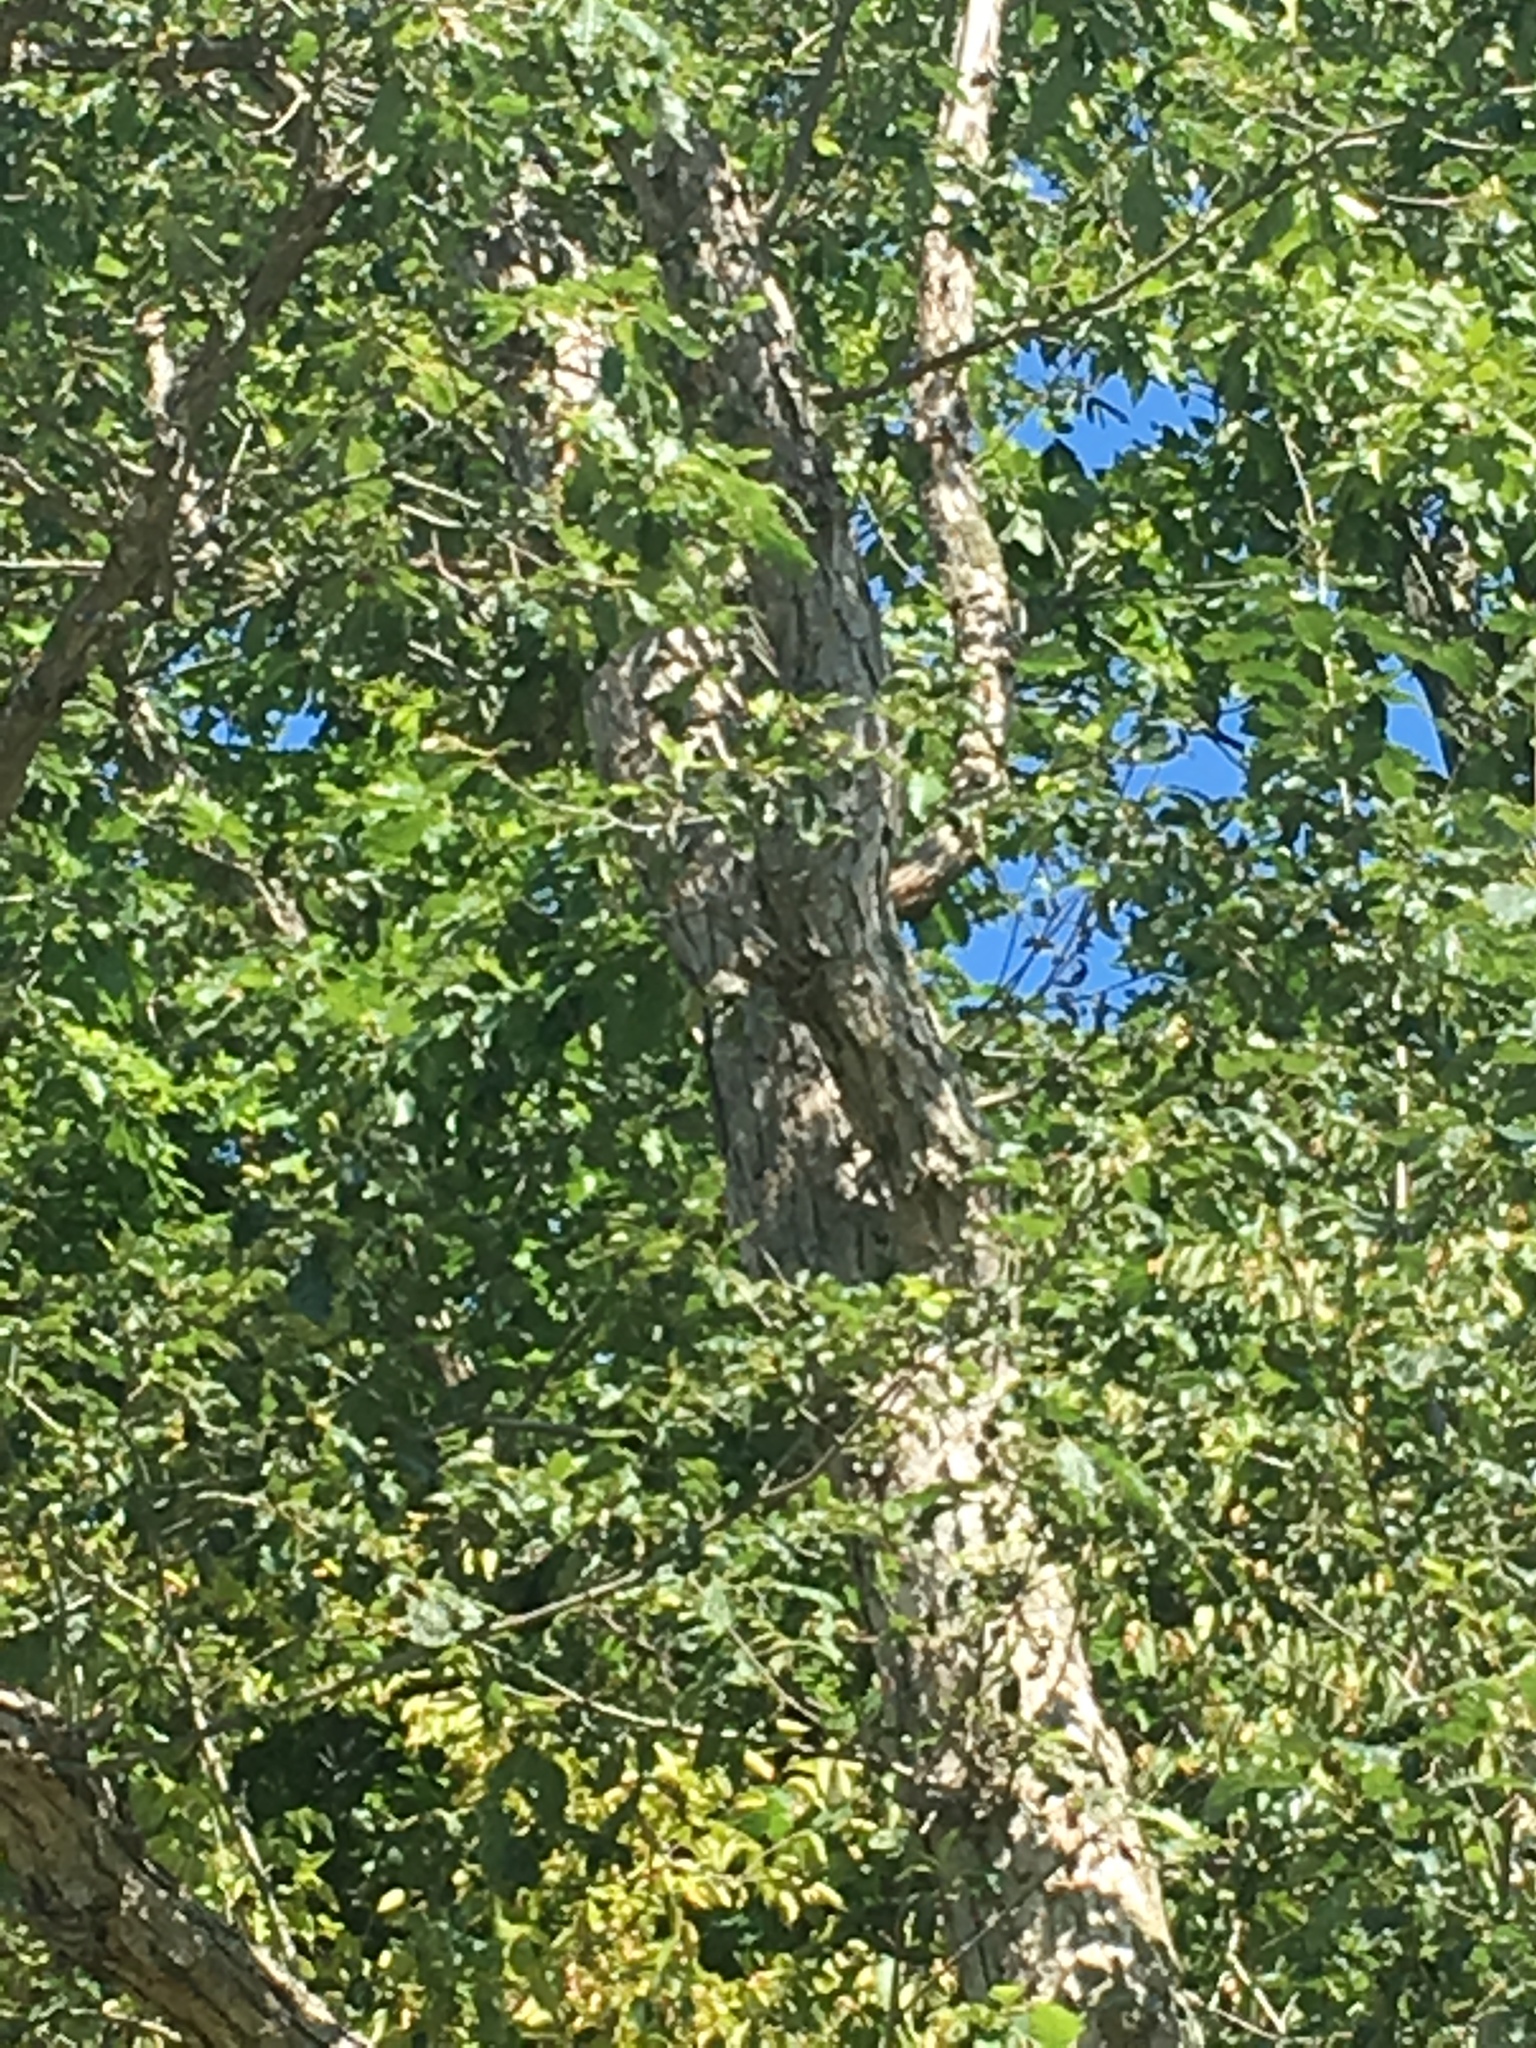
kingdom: Plantae
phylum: Tracheophyta
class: Magnoliopsida
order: Fagales
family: Fagaceae
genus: Quercus
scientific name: Quercus muehlenbergii
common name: Chinkapin oak
